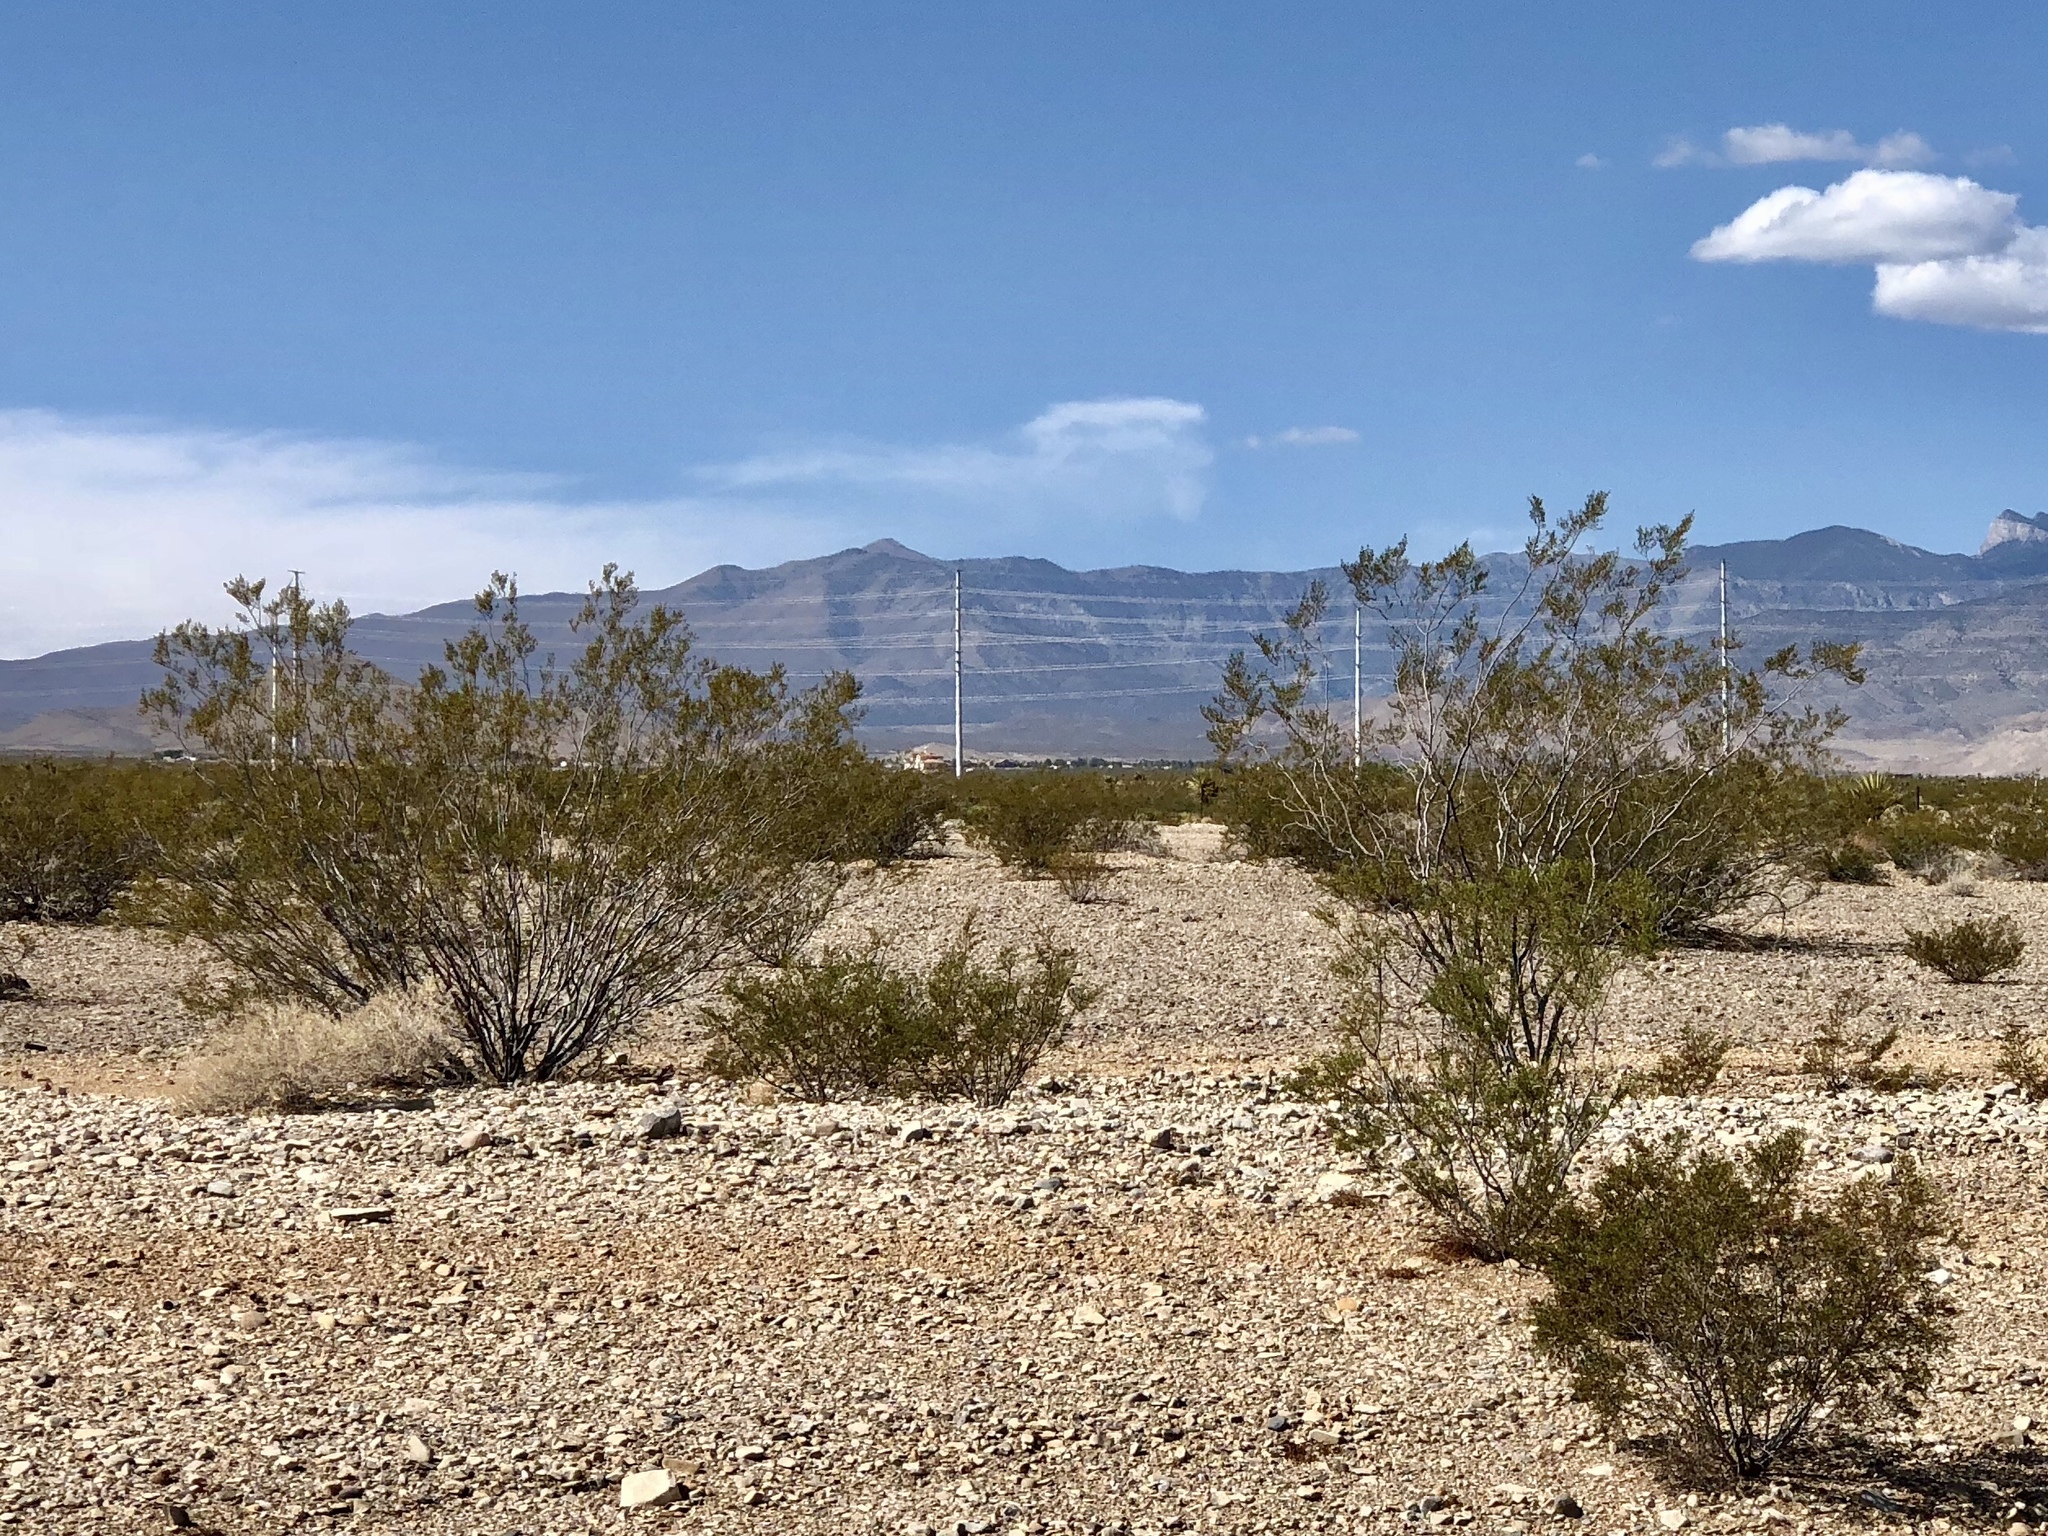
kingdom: Plantae
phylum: Tracheophyta
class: Magnoliopsida
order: Zygophyllales
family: Zygophyllaceae
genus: Larrea
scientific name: Larrea tridentata
